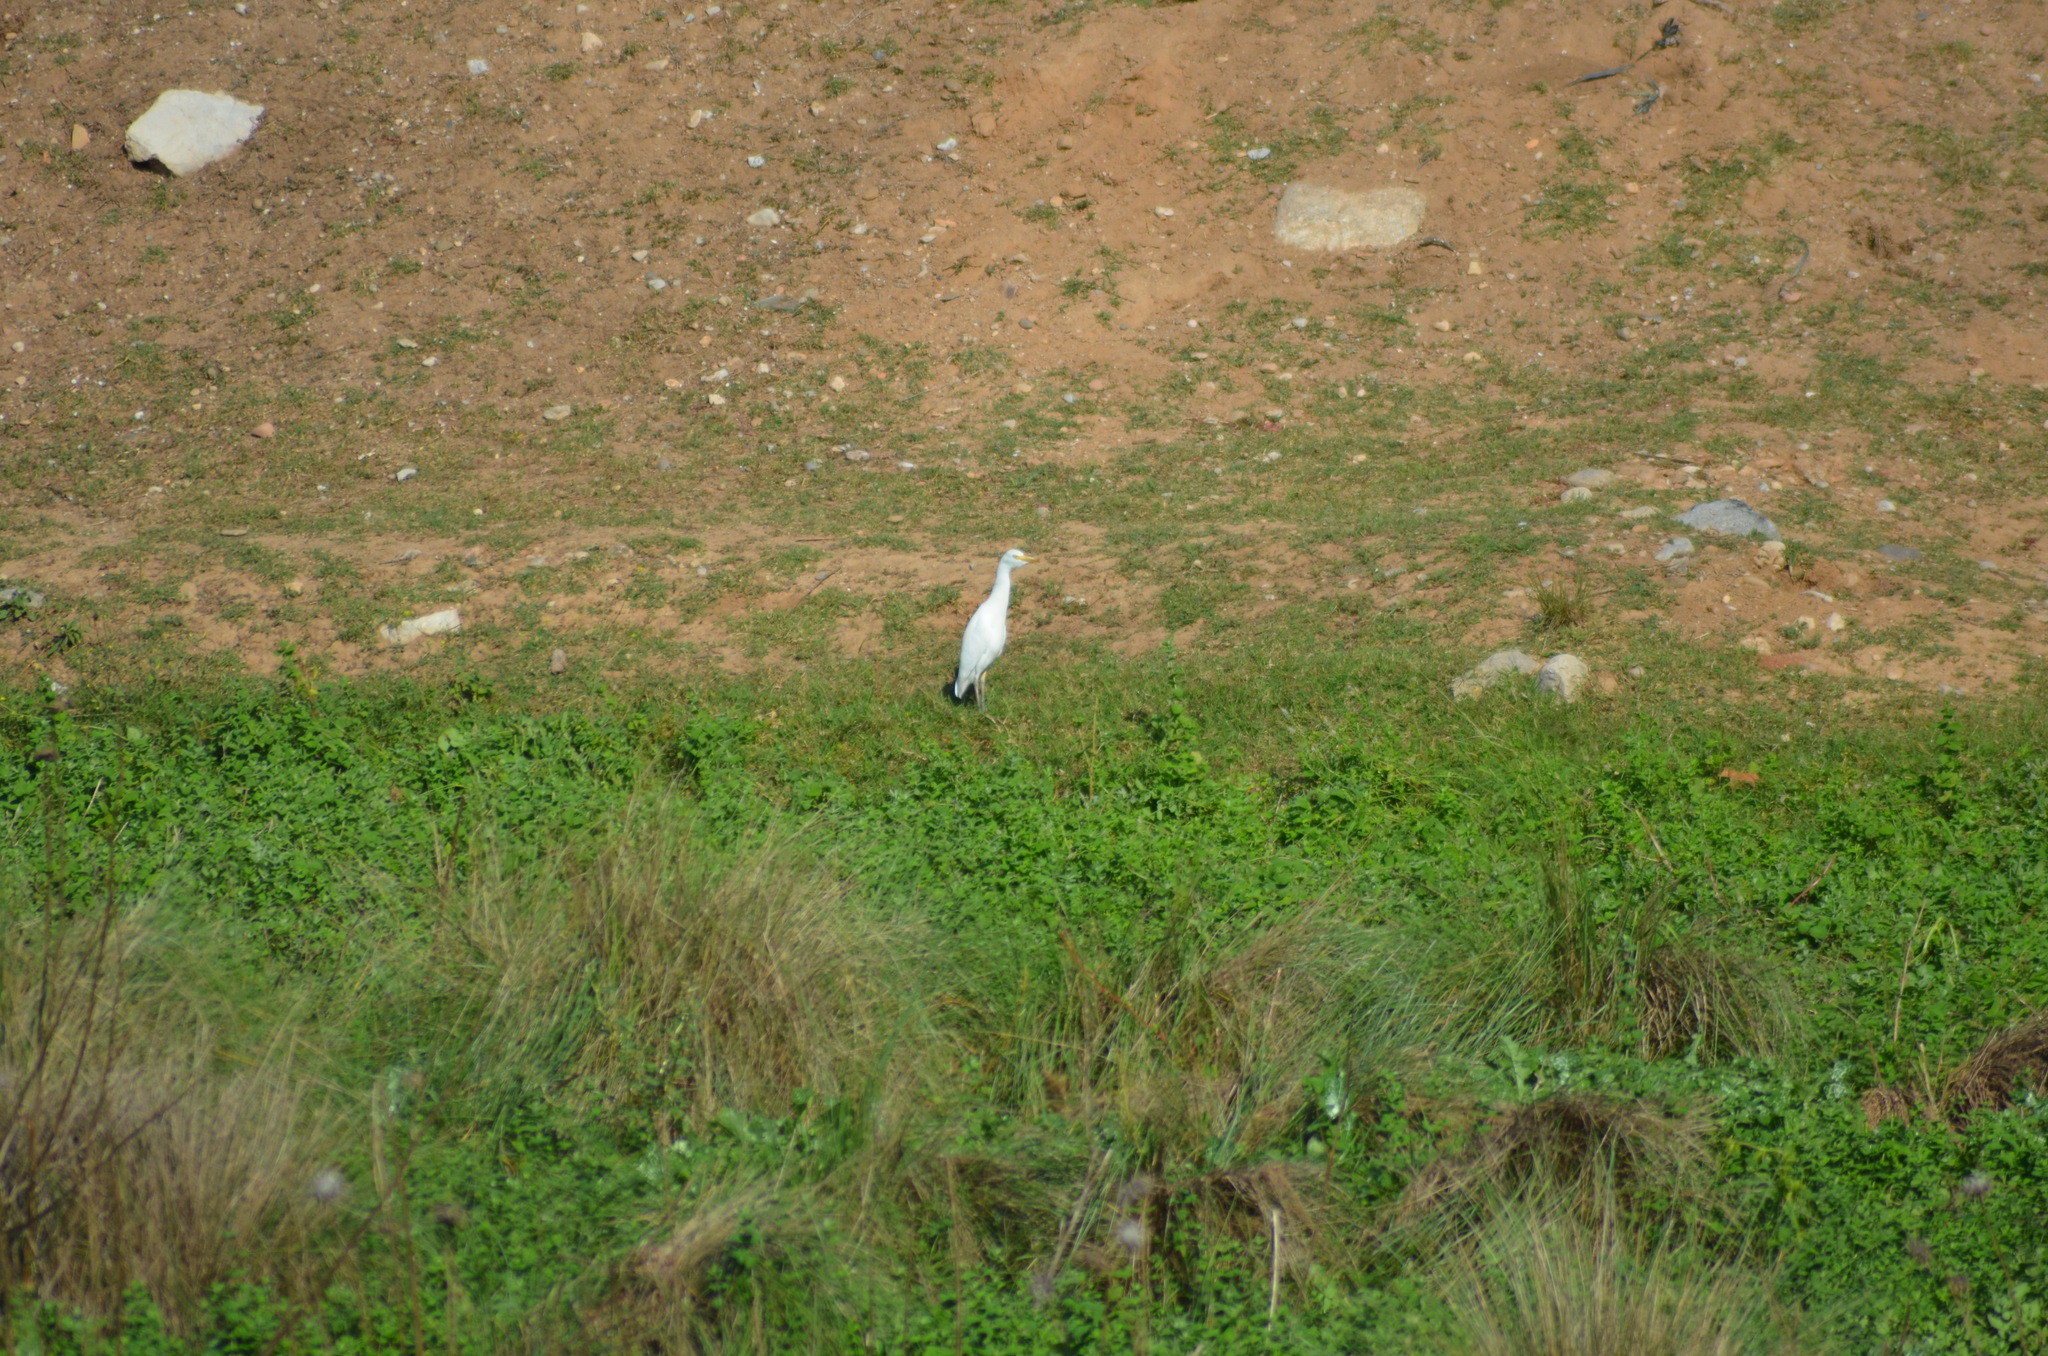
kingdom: Animalia
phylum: Chordata
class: Aves
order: Pelecaniformes
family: Ardeidae
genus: Bubulcus
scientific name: Bubulcus ibis
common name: Cattle egret
